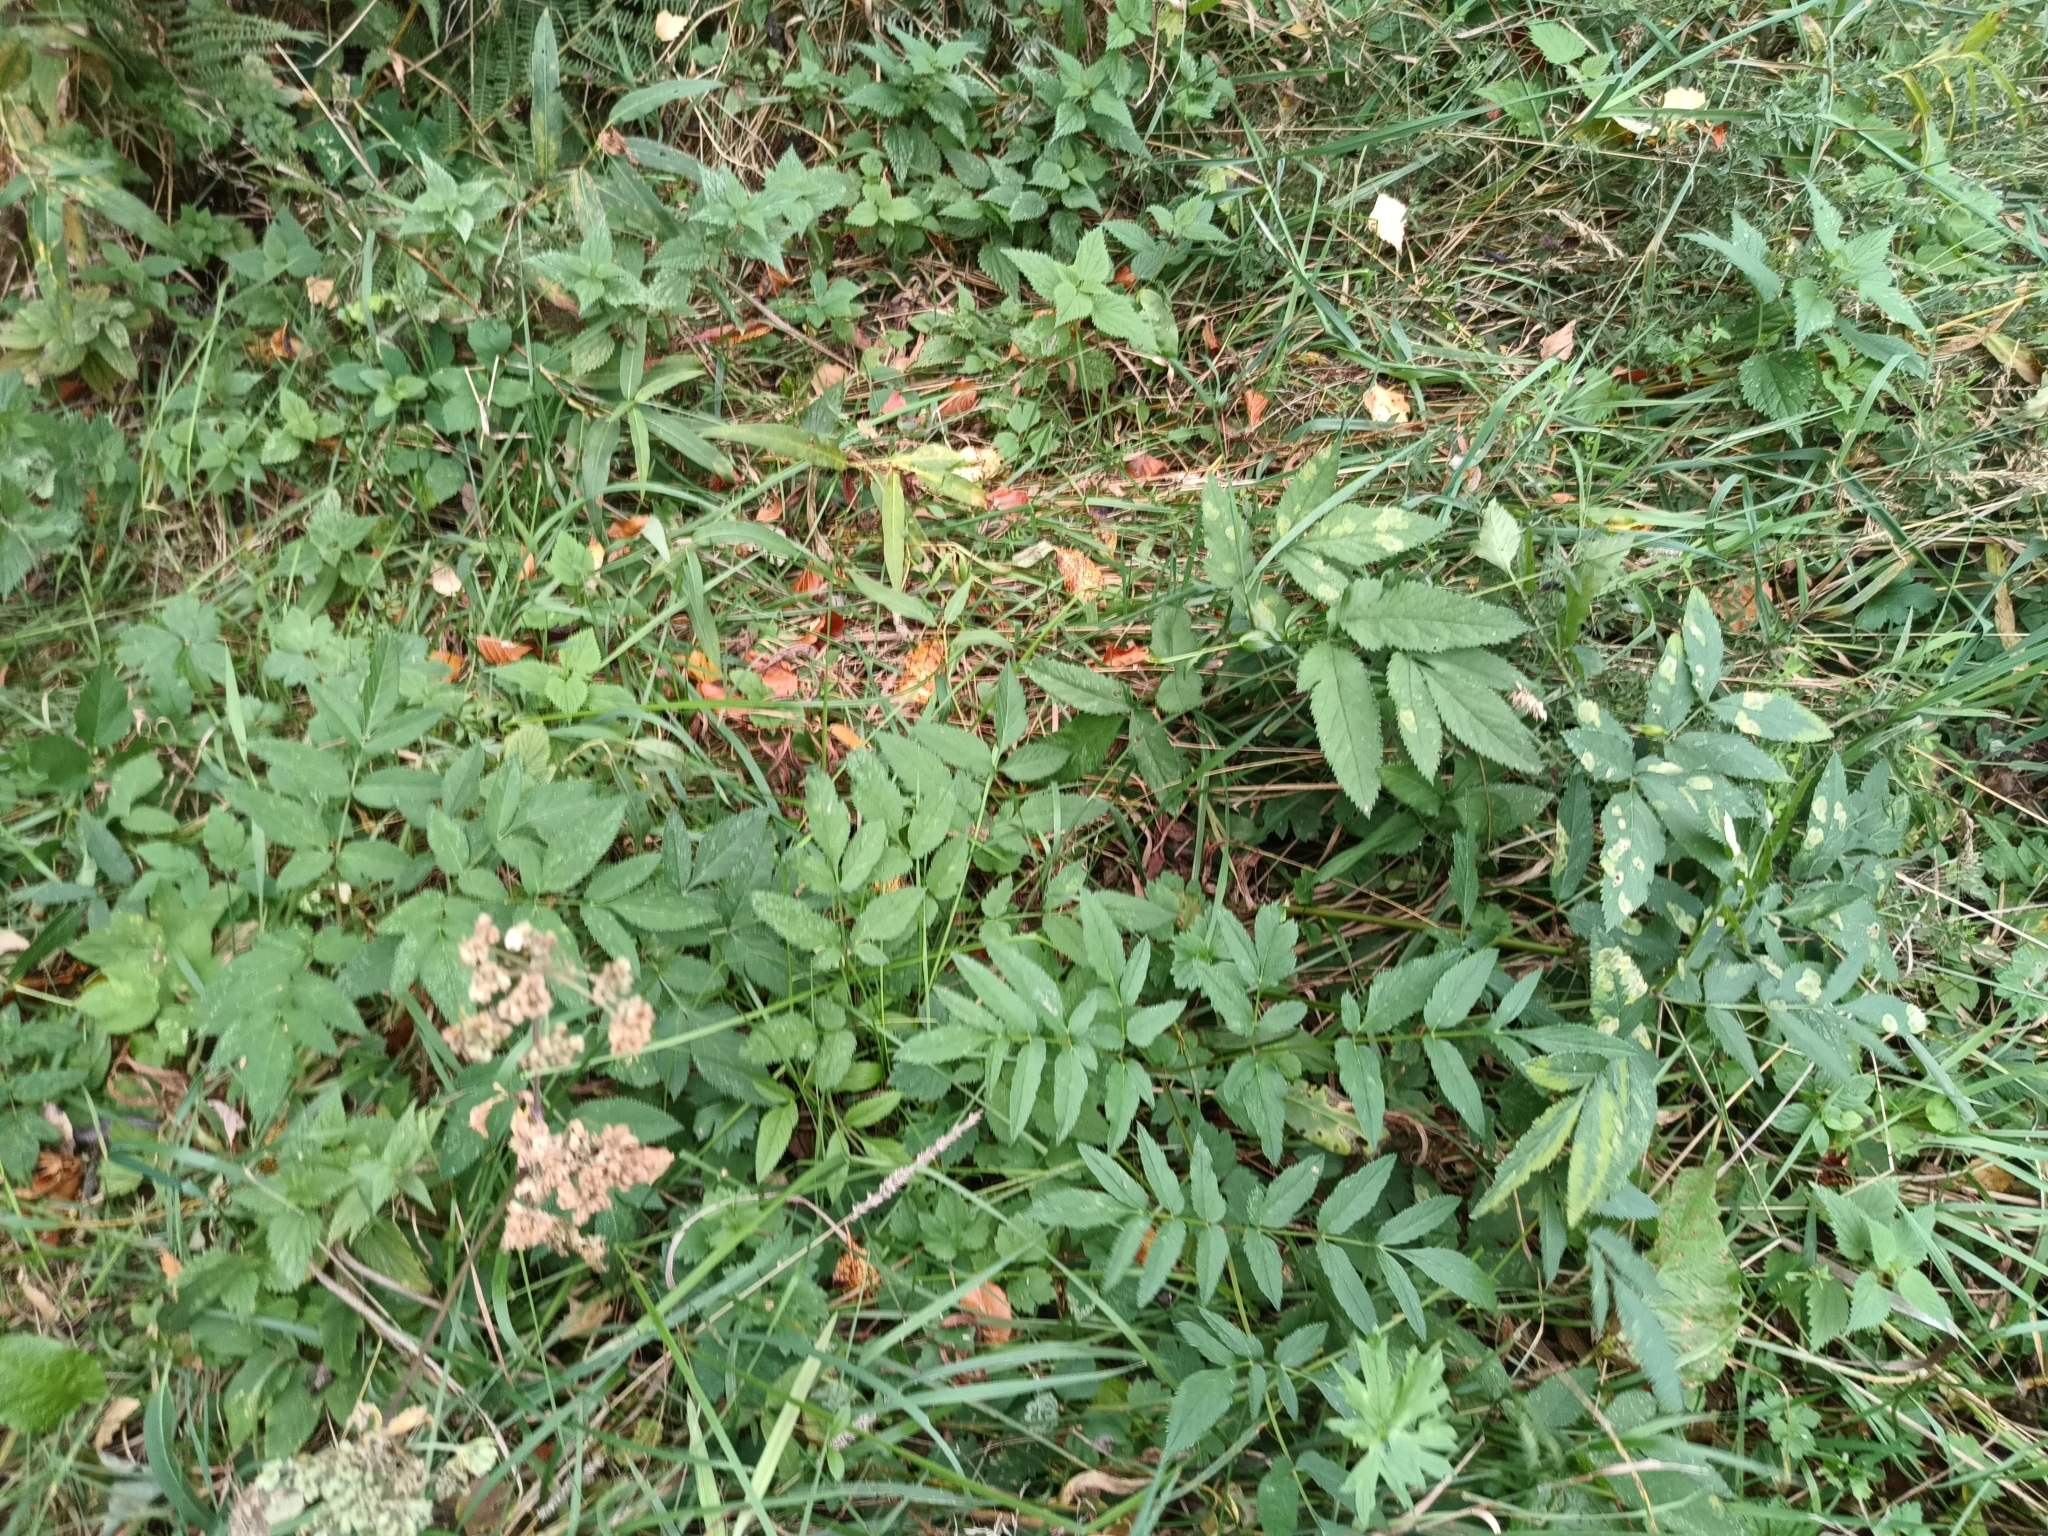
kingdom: Plantae
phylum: Tracheophyta
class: Magnoliopsida
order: Apiales
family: Apiaceae
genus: Angelica
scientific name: Angelica sylvestris
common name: Wild angelica
